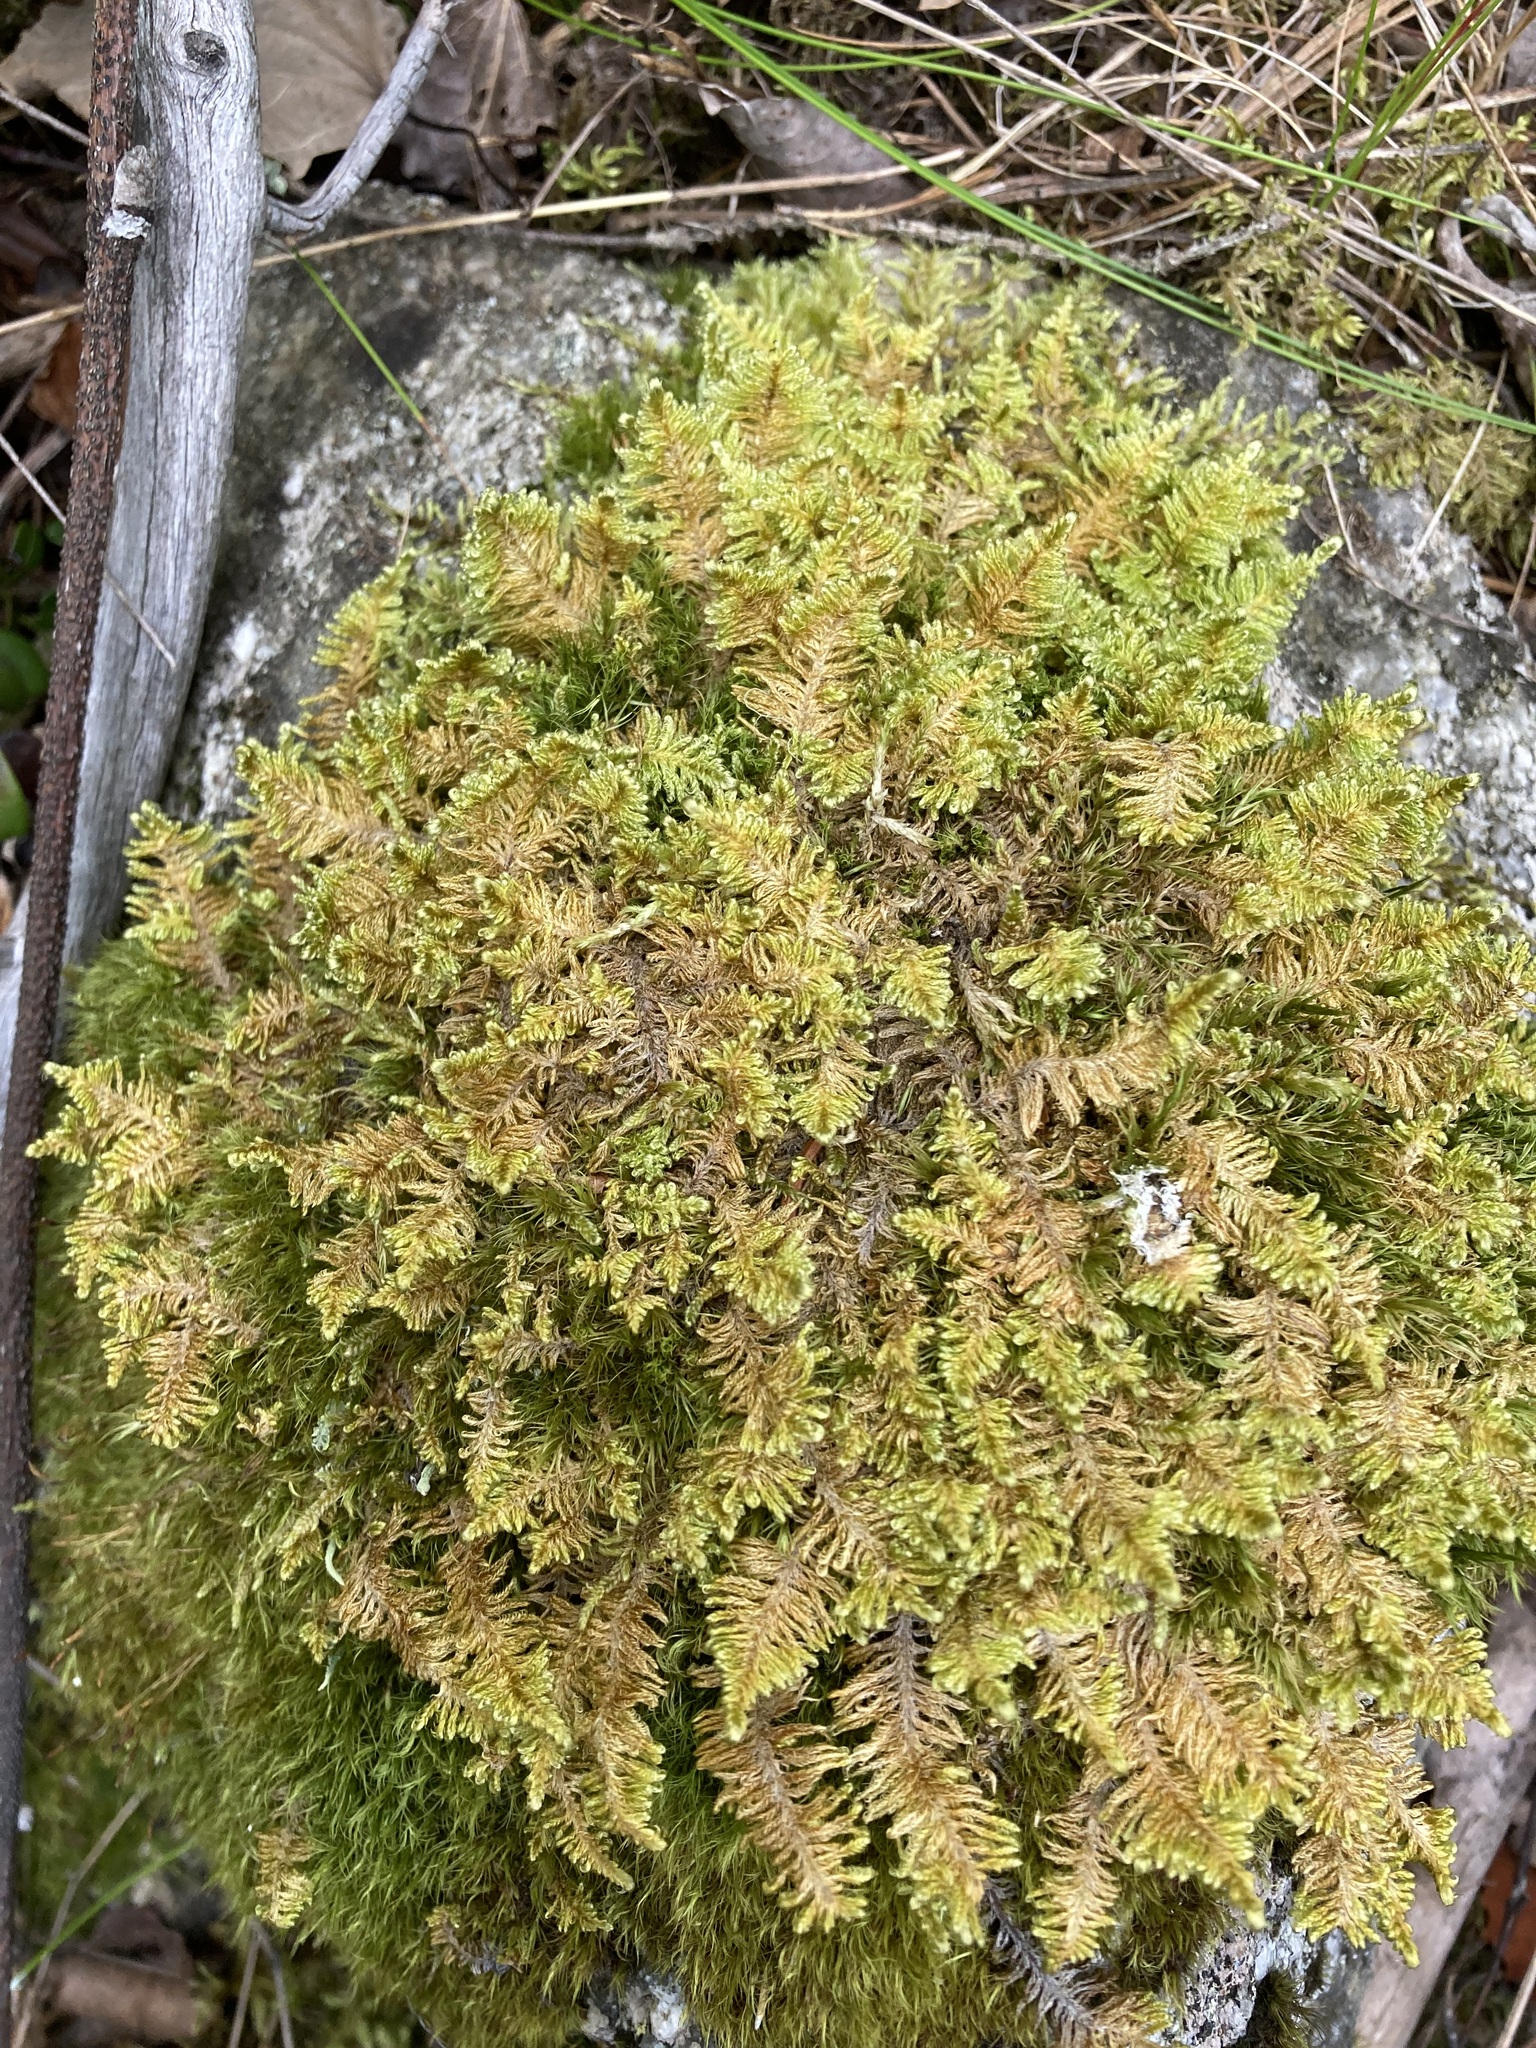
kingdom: Plantae
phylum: Bryophyta
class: Bryopsida
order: Hypnales
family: Pylaisiaceae
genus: Ptilium
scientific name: Ptilium crista-castrensis
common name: Knight's plume moss
